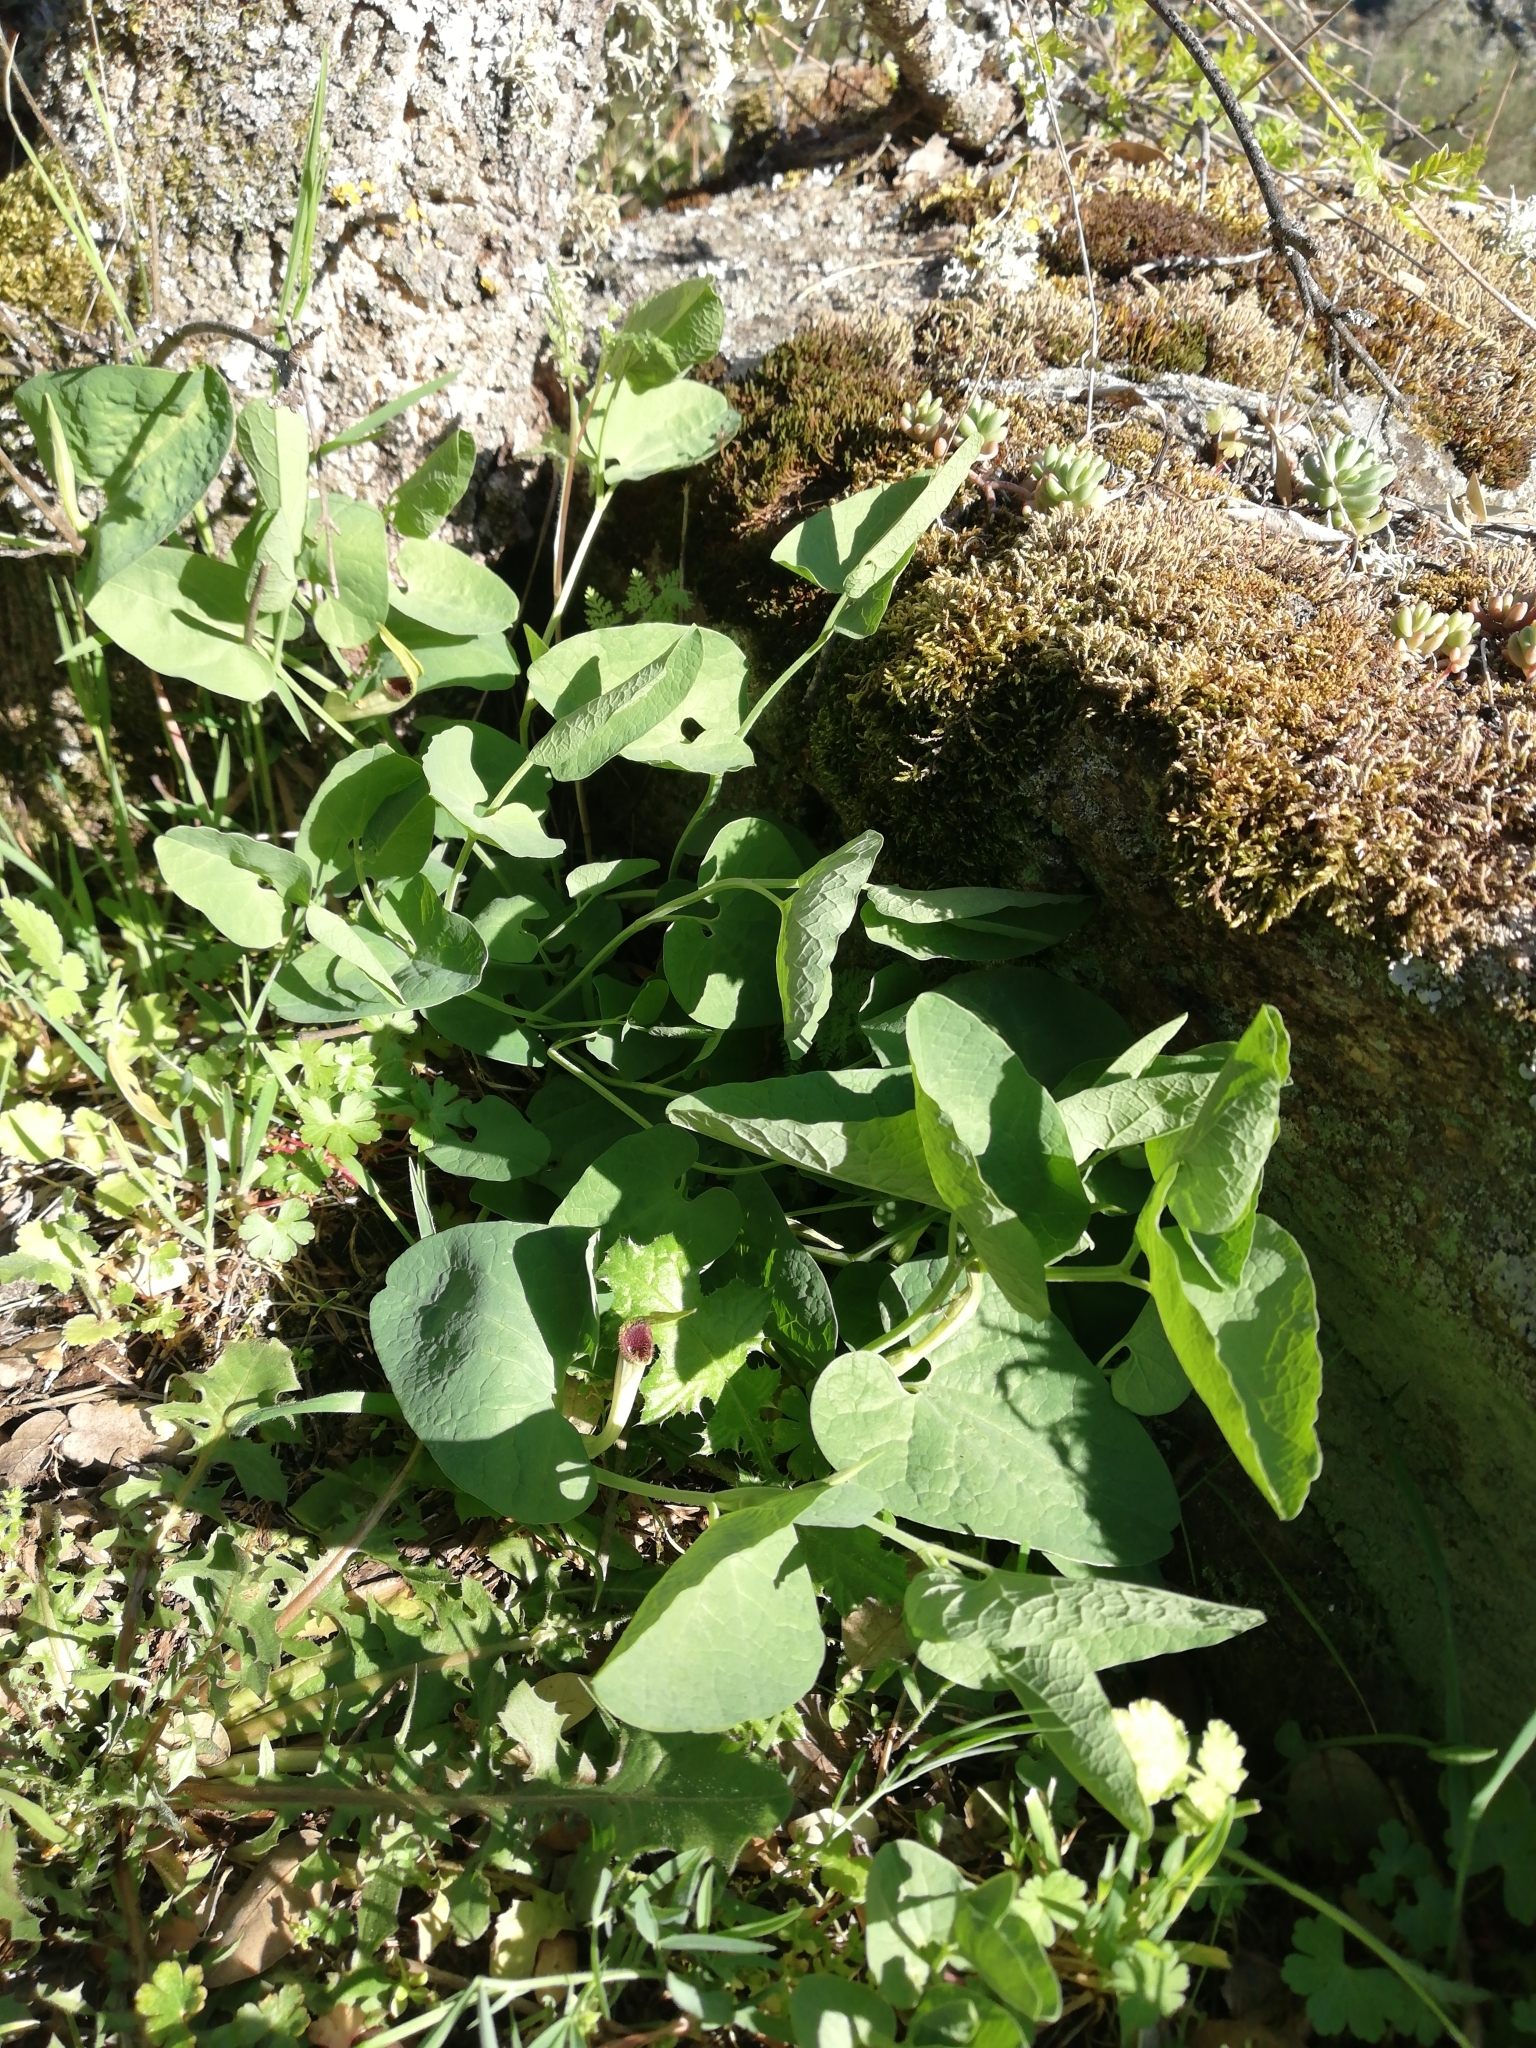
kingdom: Plantae
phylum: Tracheophyta
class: Magnoliopsida
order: Piperales
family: Aristolochiaceae
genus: Aristolochia
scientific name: Aristolochia paucinervis
